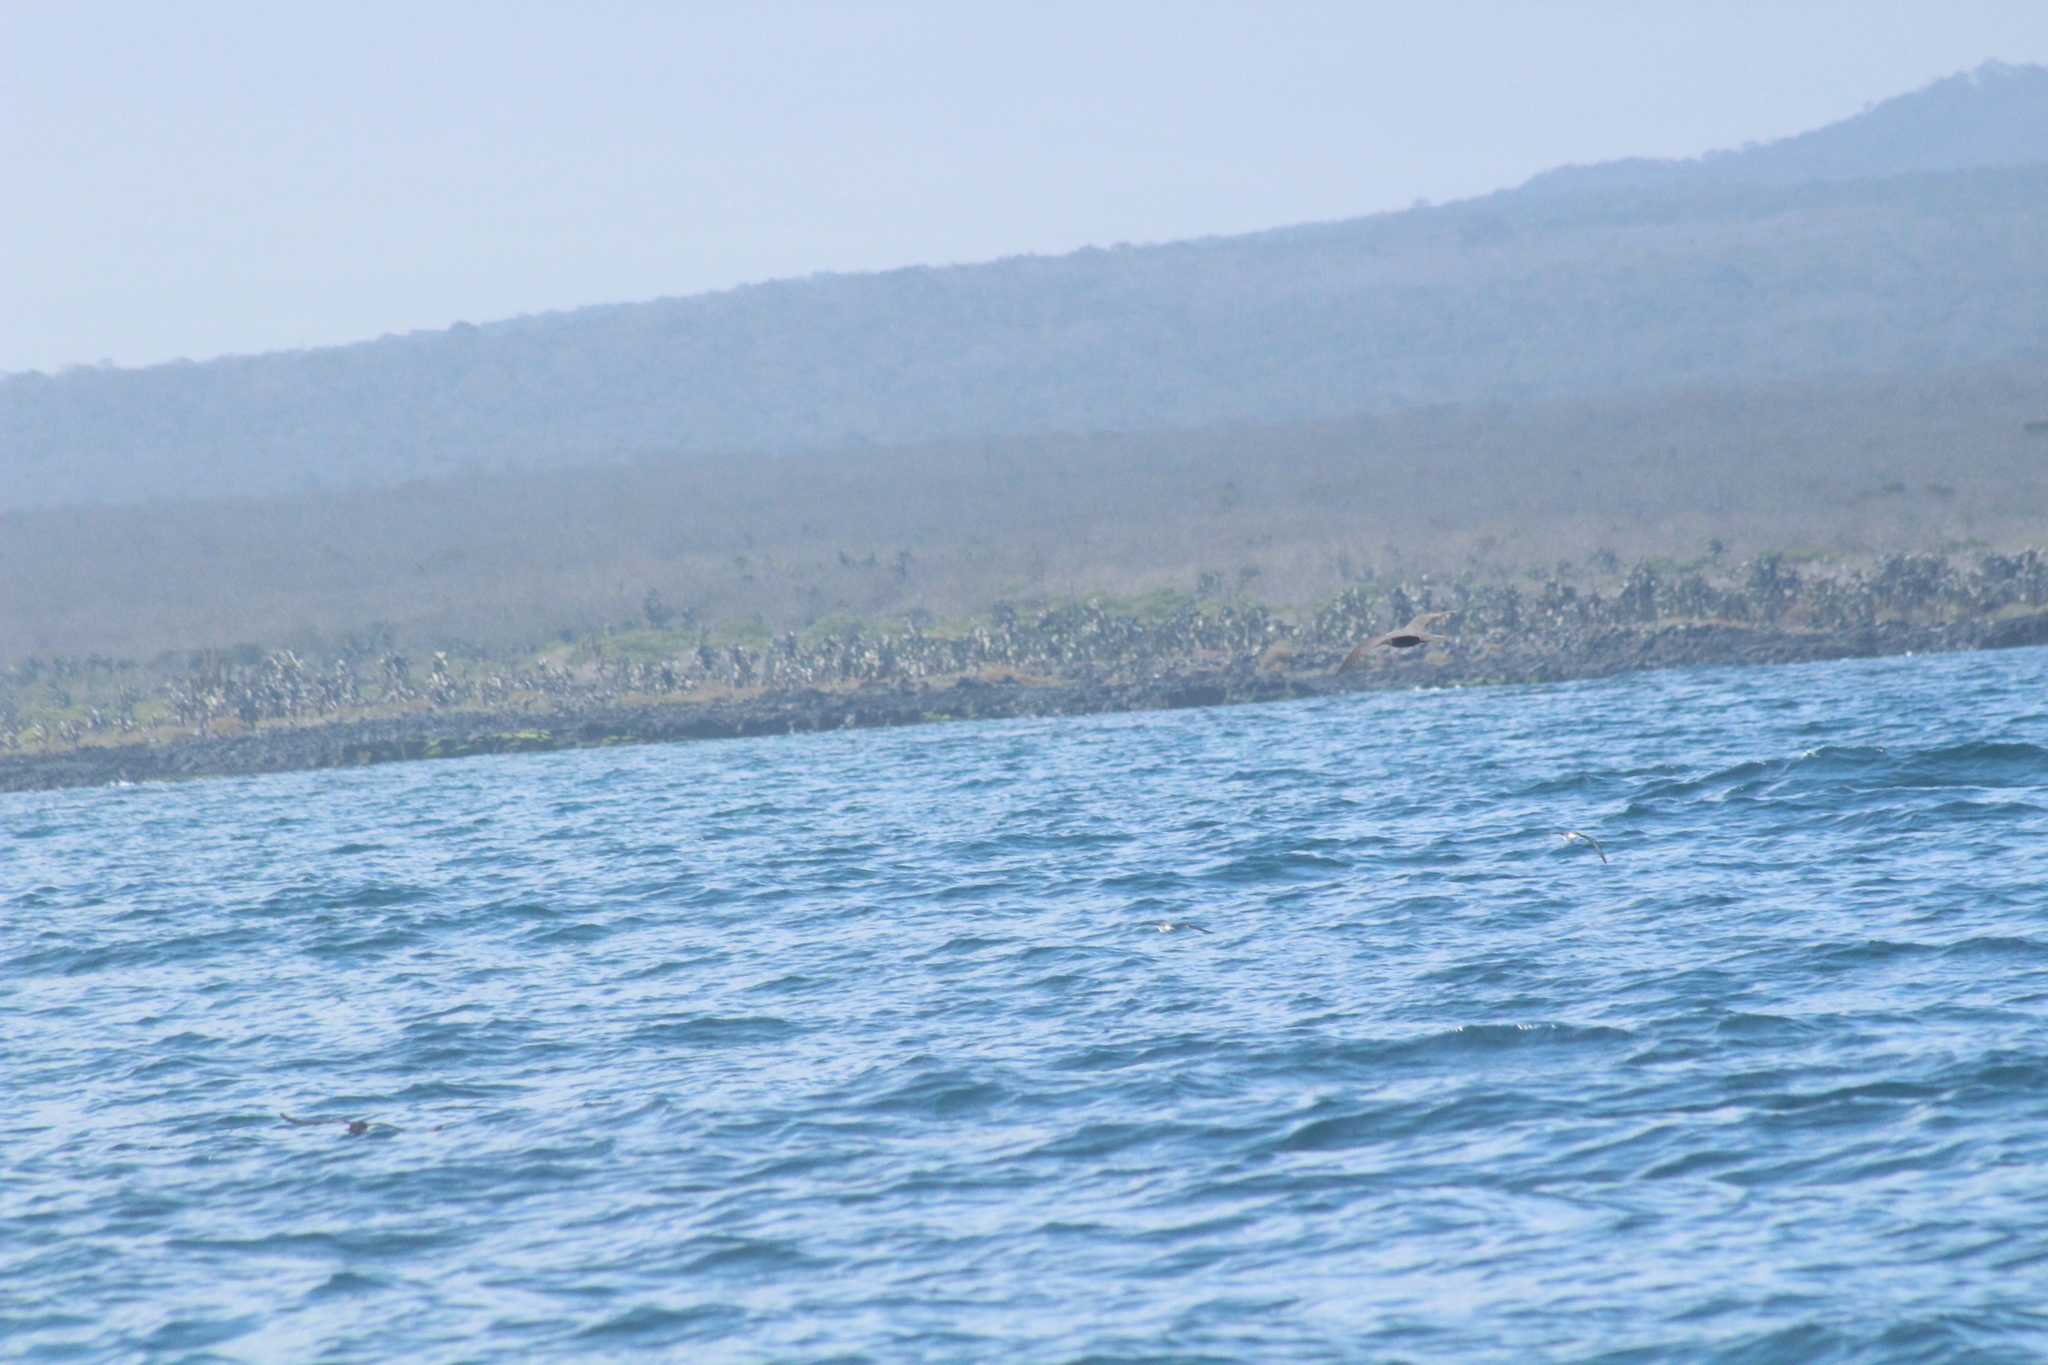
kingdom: Animalia
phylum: Chordata
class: Aves
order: Charadriiformes
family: Laridae
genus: Anous
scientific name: Anous stolidus
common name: Brown noddy
